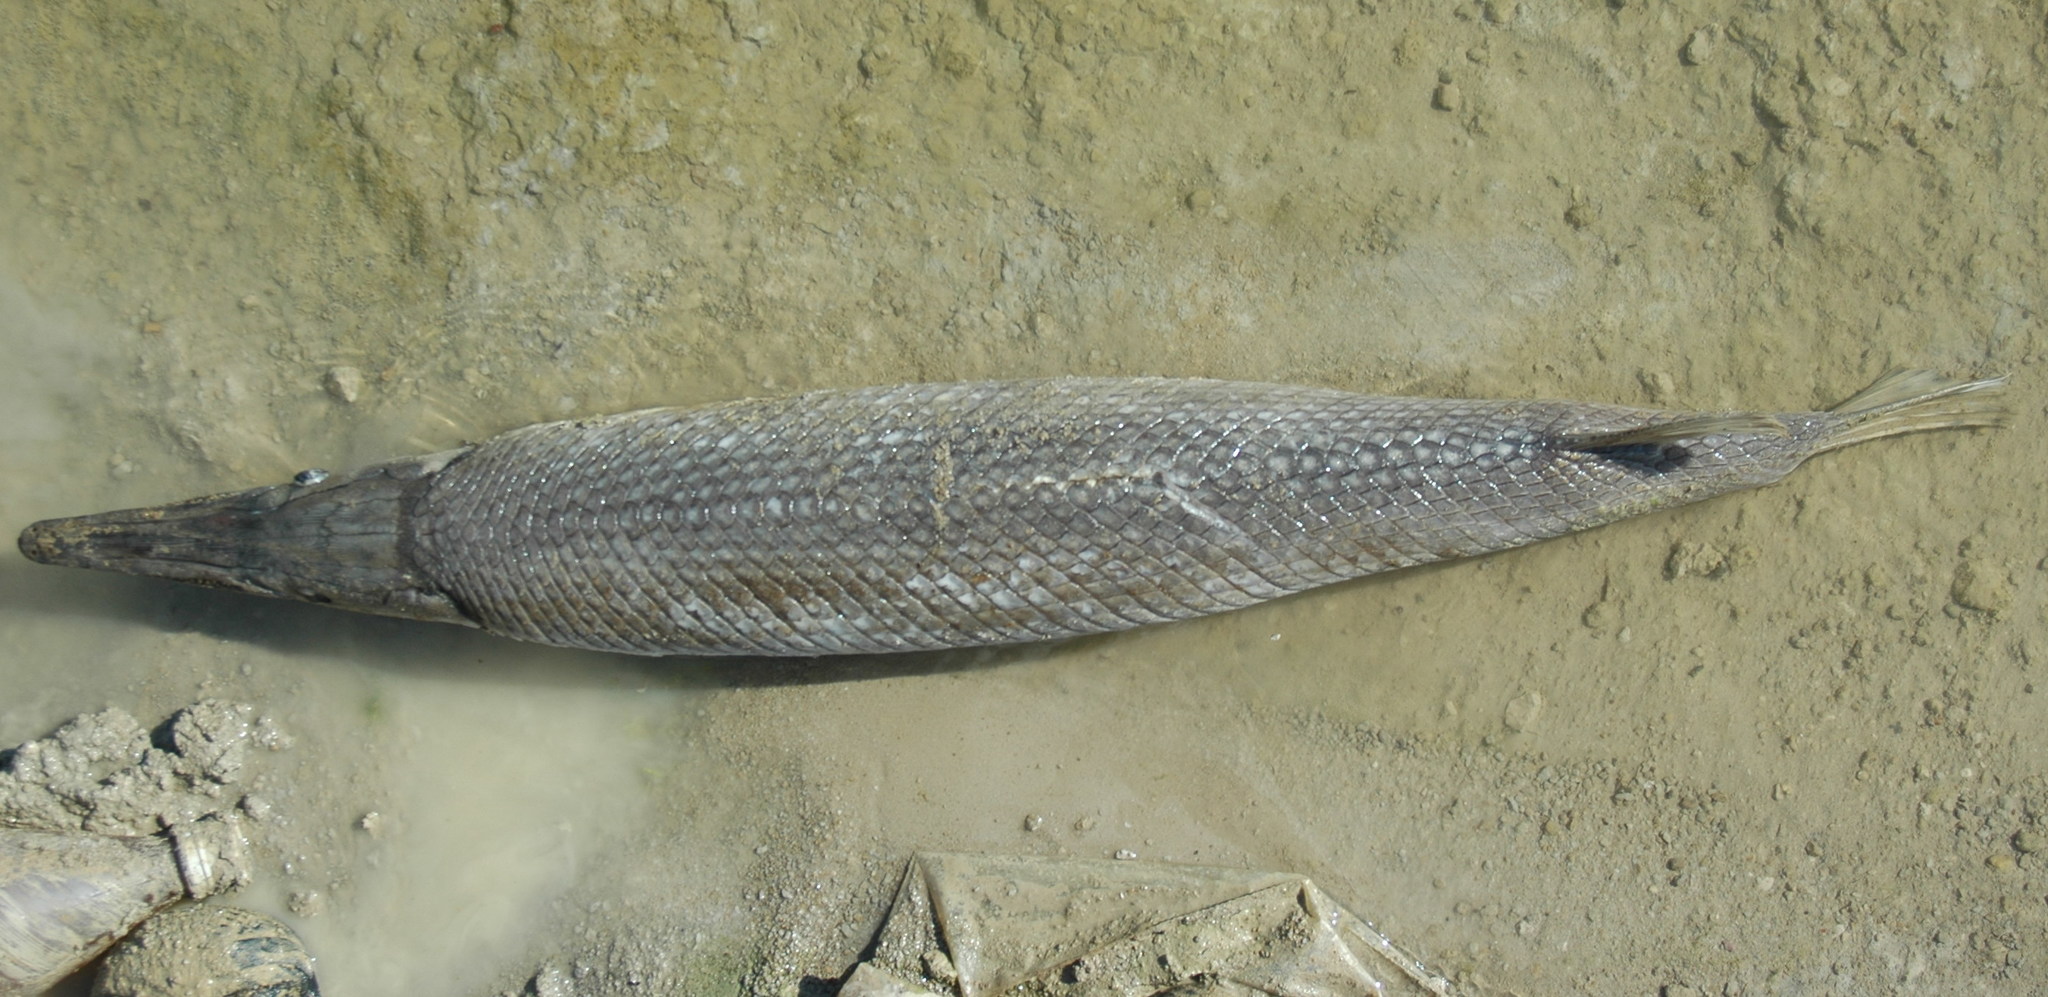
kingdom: Animalia
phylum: Chordata
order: Lepisosteiformes
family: Lepisosteidae
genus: Lepisosteus
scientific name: Lepisosteus oculatus
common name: Spotted gar
